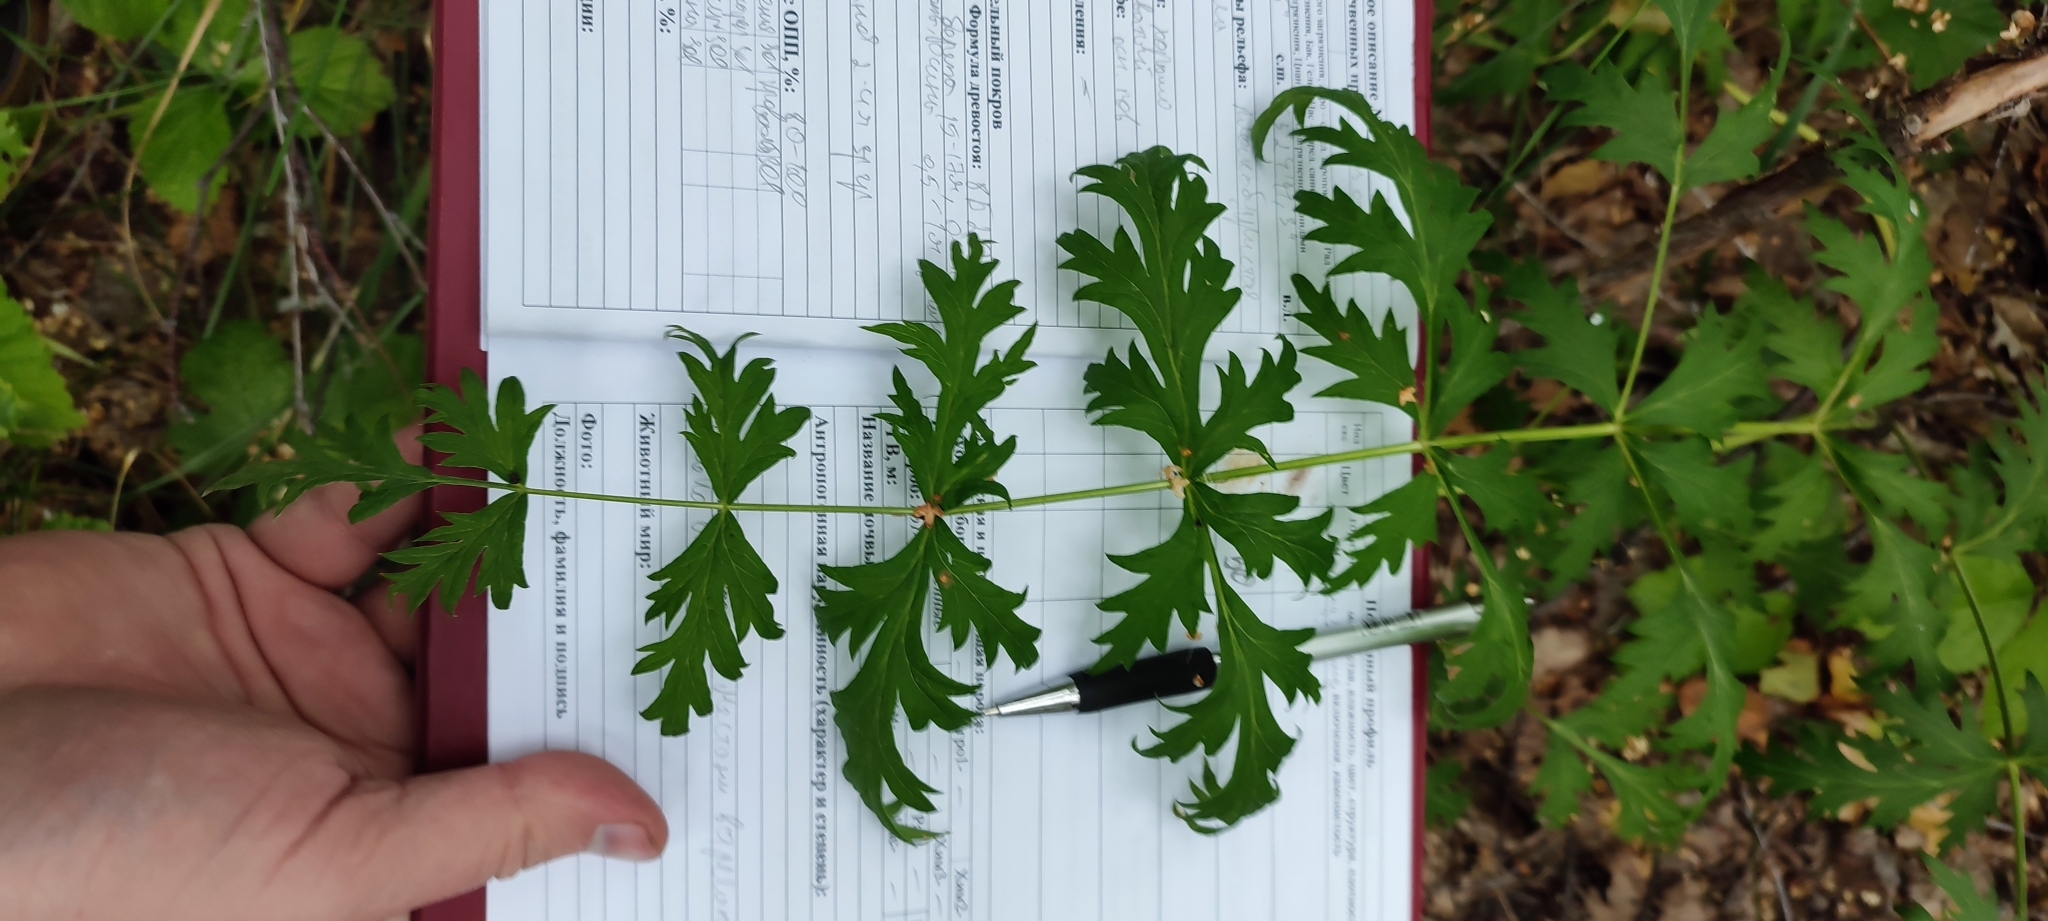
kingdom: Plantae
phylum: Tracheophyta
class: Magnoliopsida
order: Apiales
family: Apiaceae
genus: Seseli
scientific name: Seseli libanotis
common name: Mooncarrot
